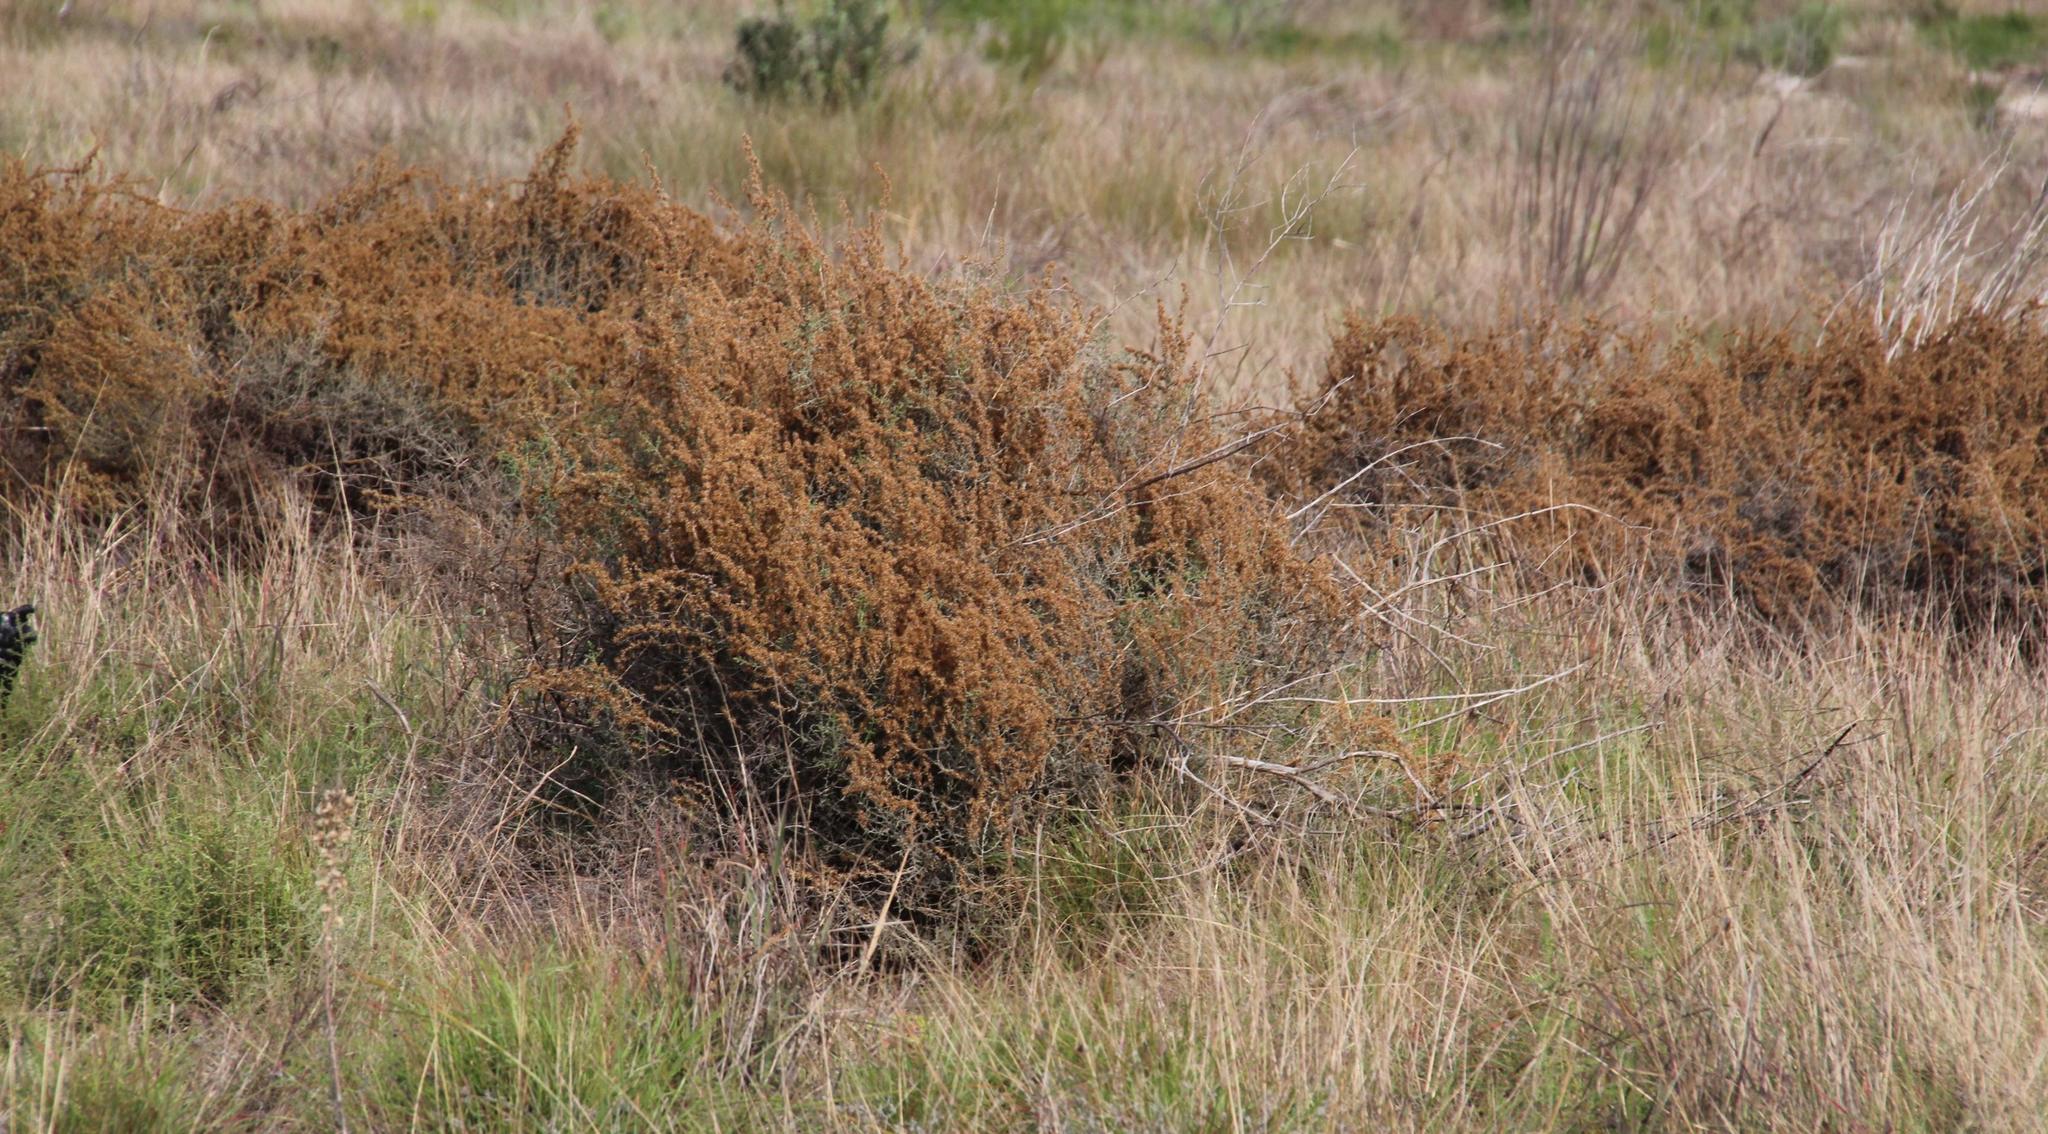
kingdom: Plantae
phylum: Tracheophyta
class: Magnoliopsida
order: Asterales
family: Asteraceae
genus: Seriphium
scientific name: Seriphium plumosum
